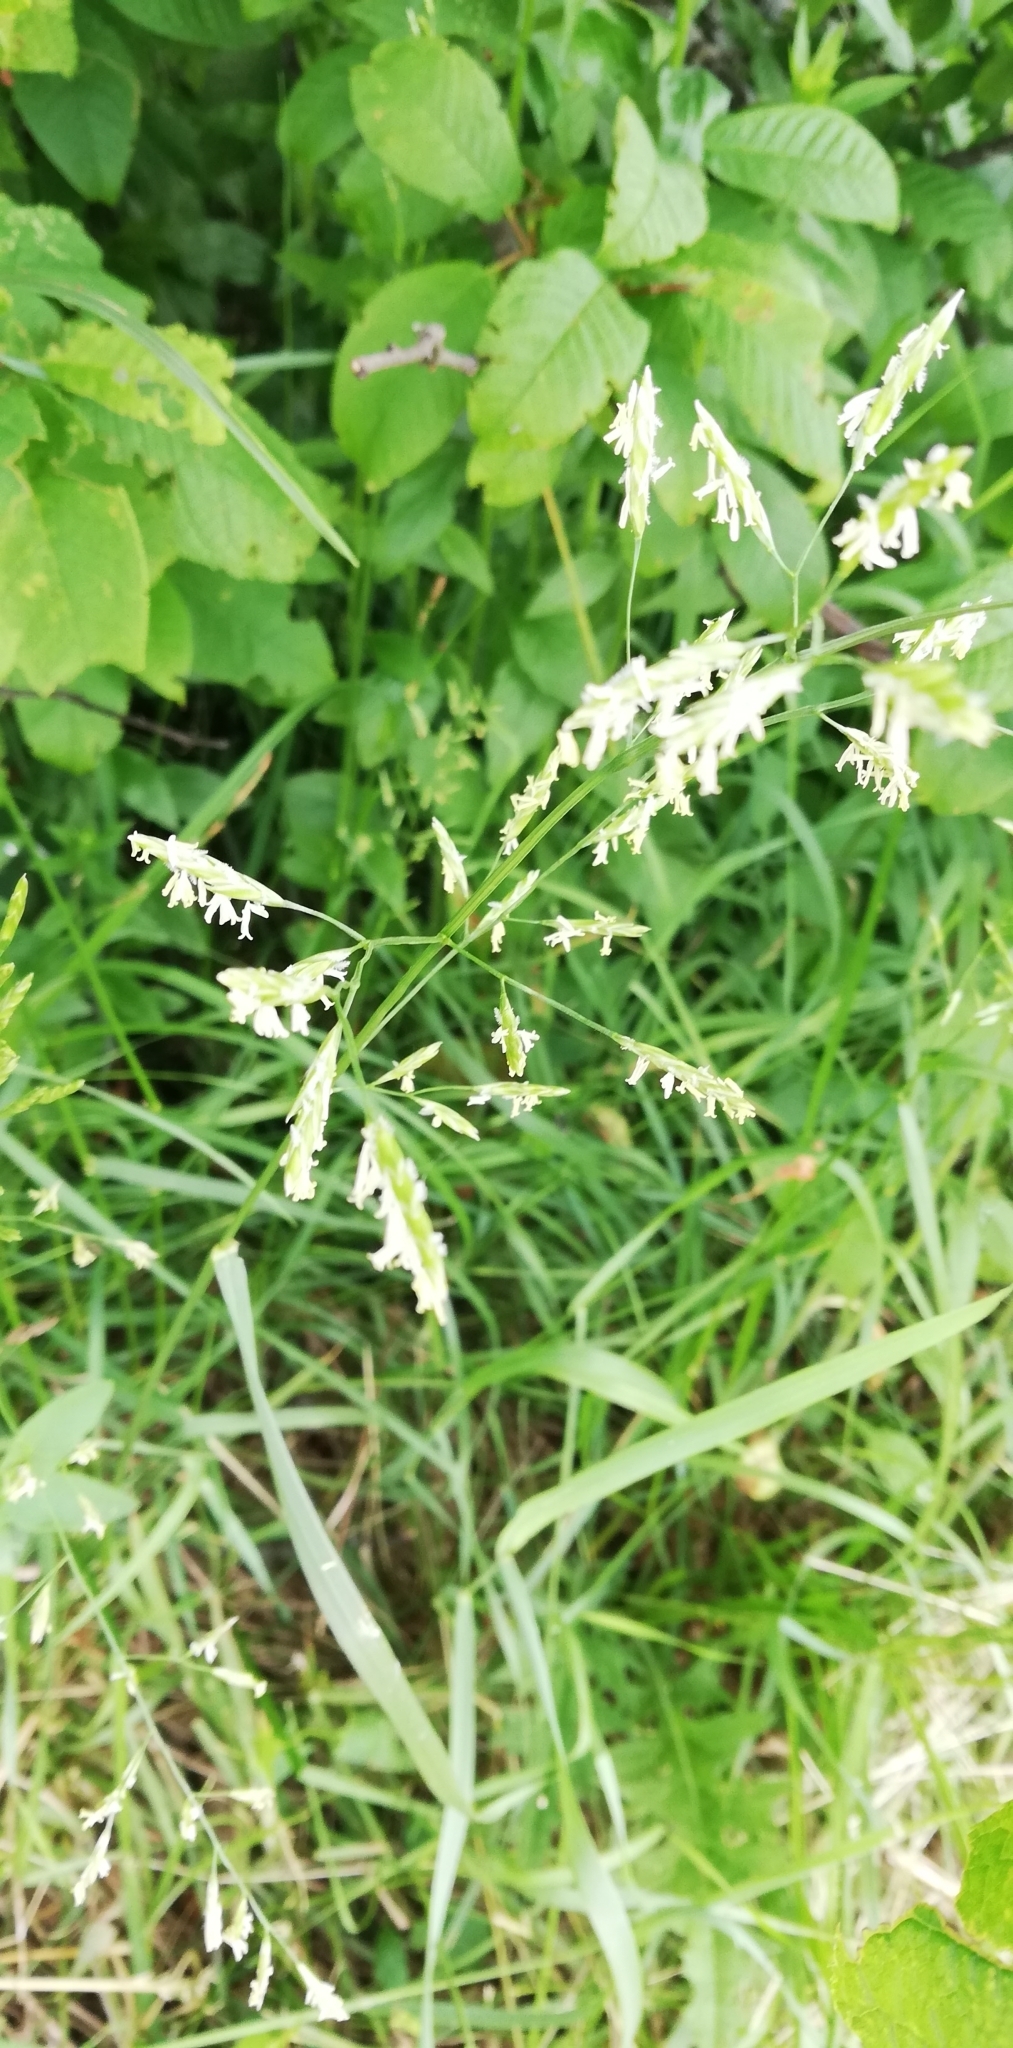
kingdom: Plantae
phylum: Tracheophyta
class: Liliopsida
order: Poales
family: Poaceae
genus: Lolium
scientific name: Lolium pratense
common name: Dover grass
